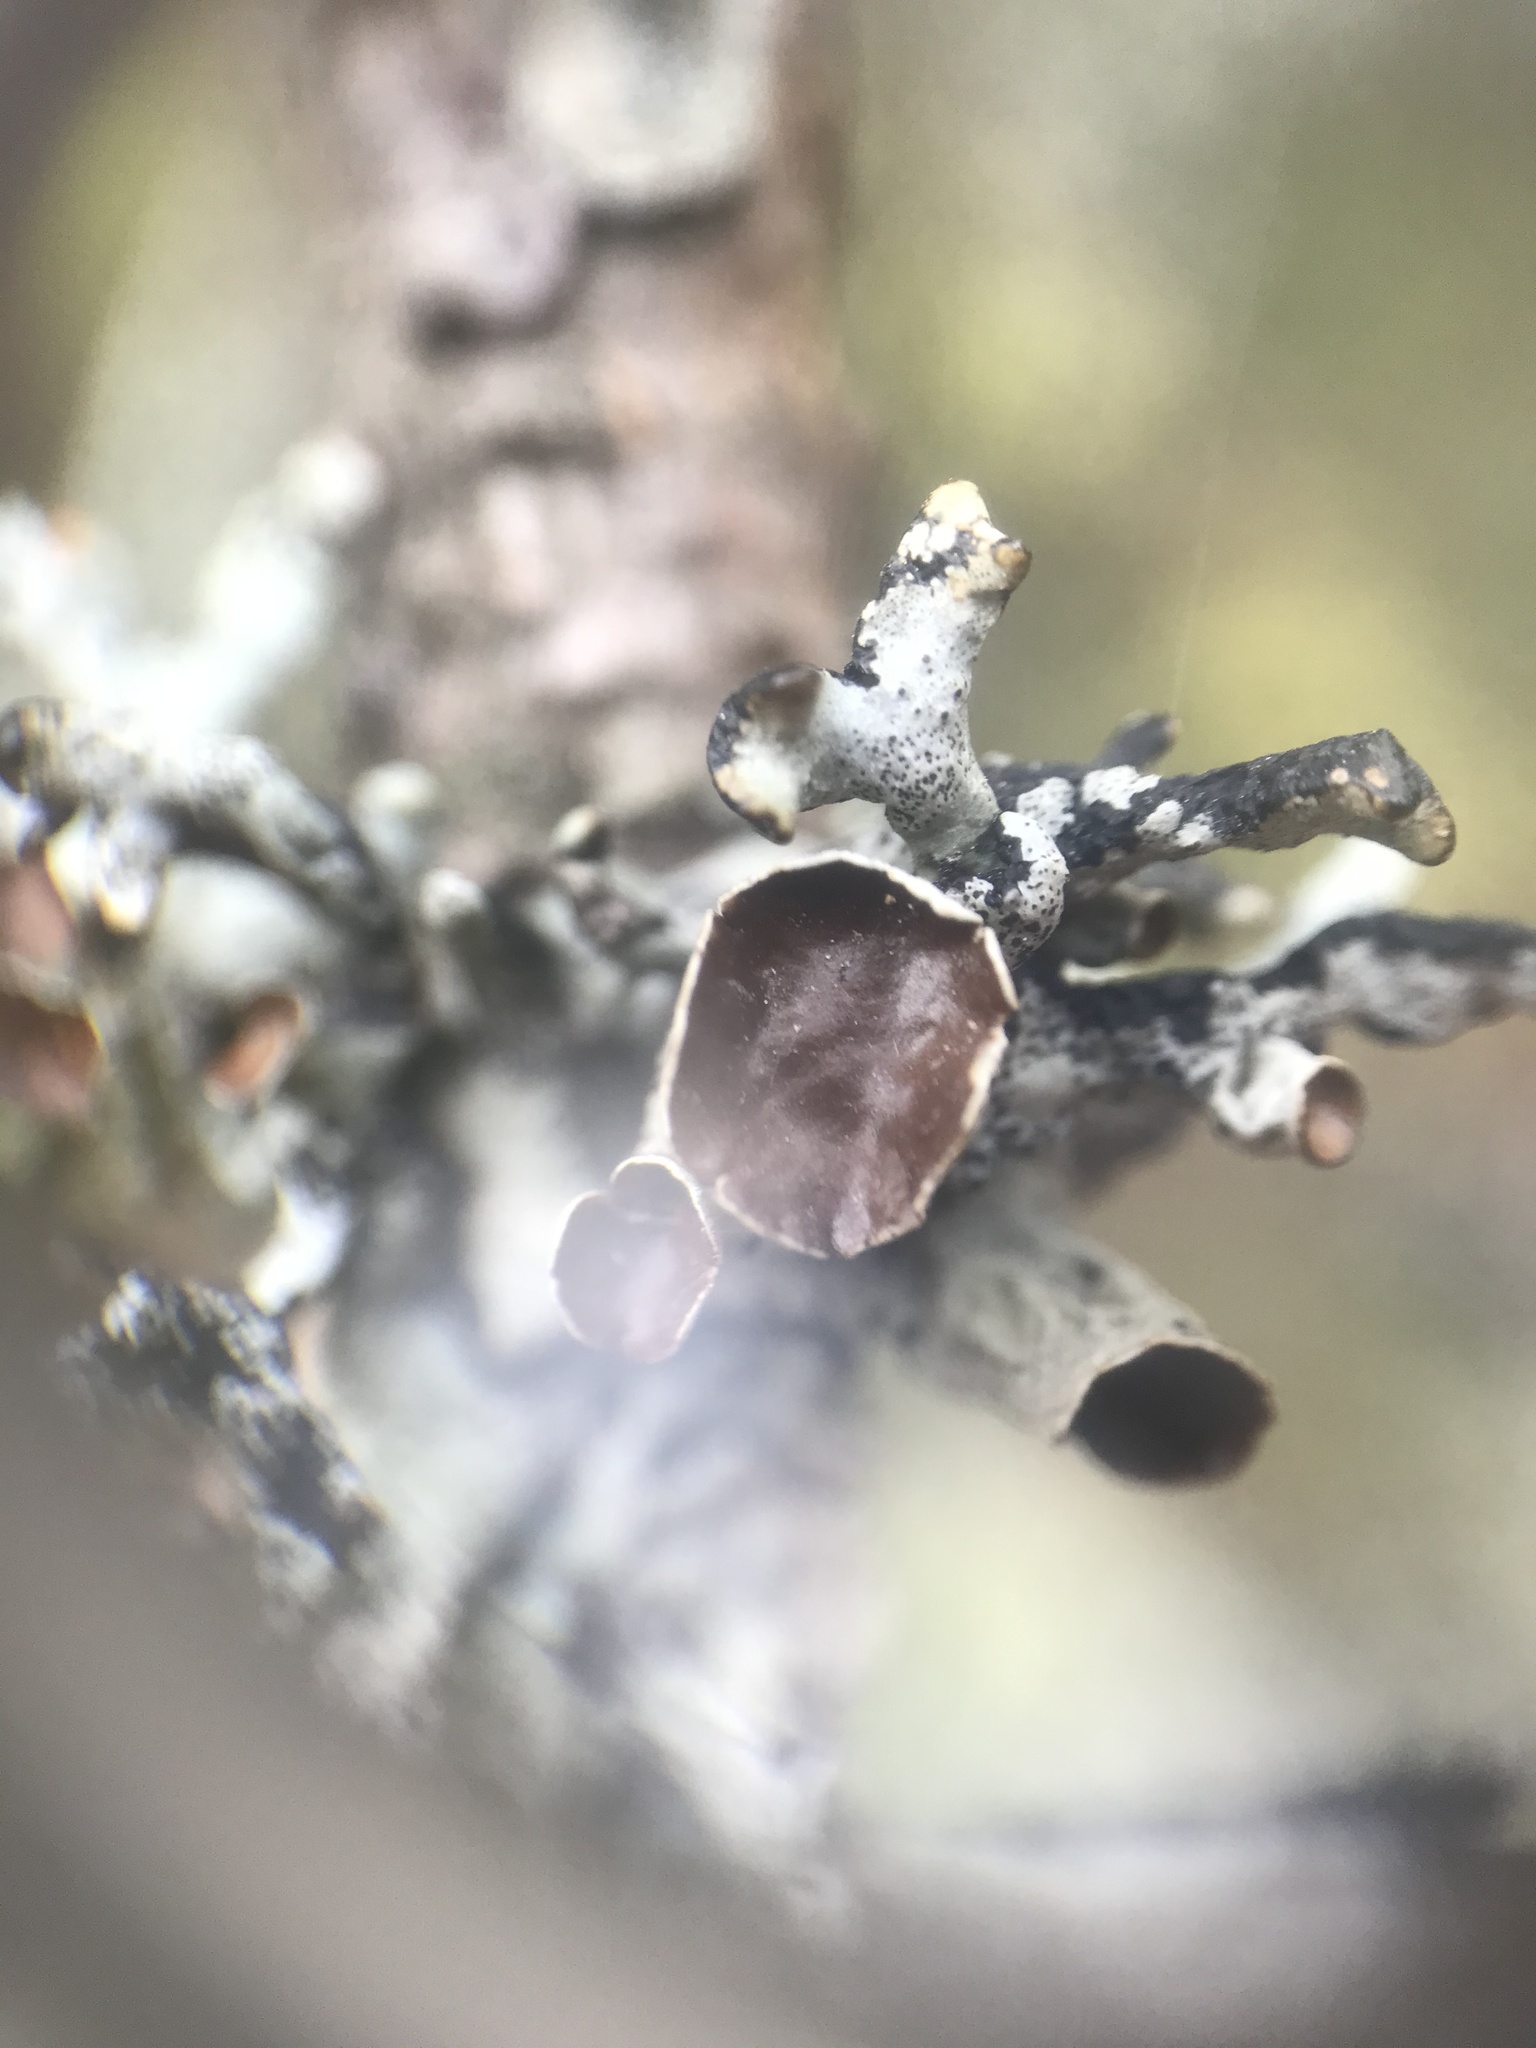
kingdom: Fungi
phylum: Ascomycota
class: Lecanoromycetes
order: Lecanorales
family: Parmeliaceae
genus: Hypogymnia
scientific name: Hypogymnia imshaugii
